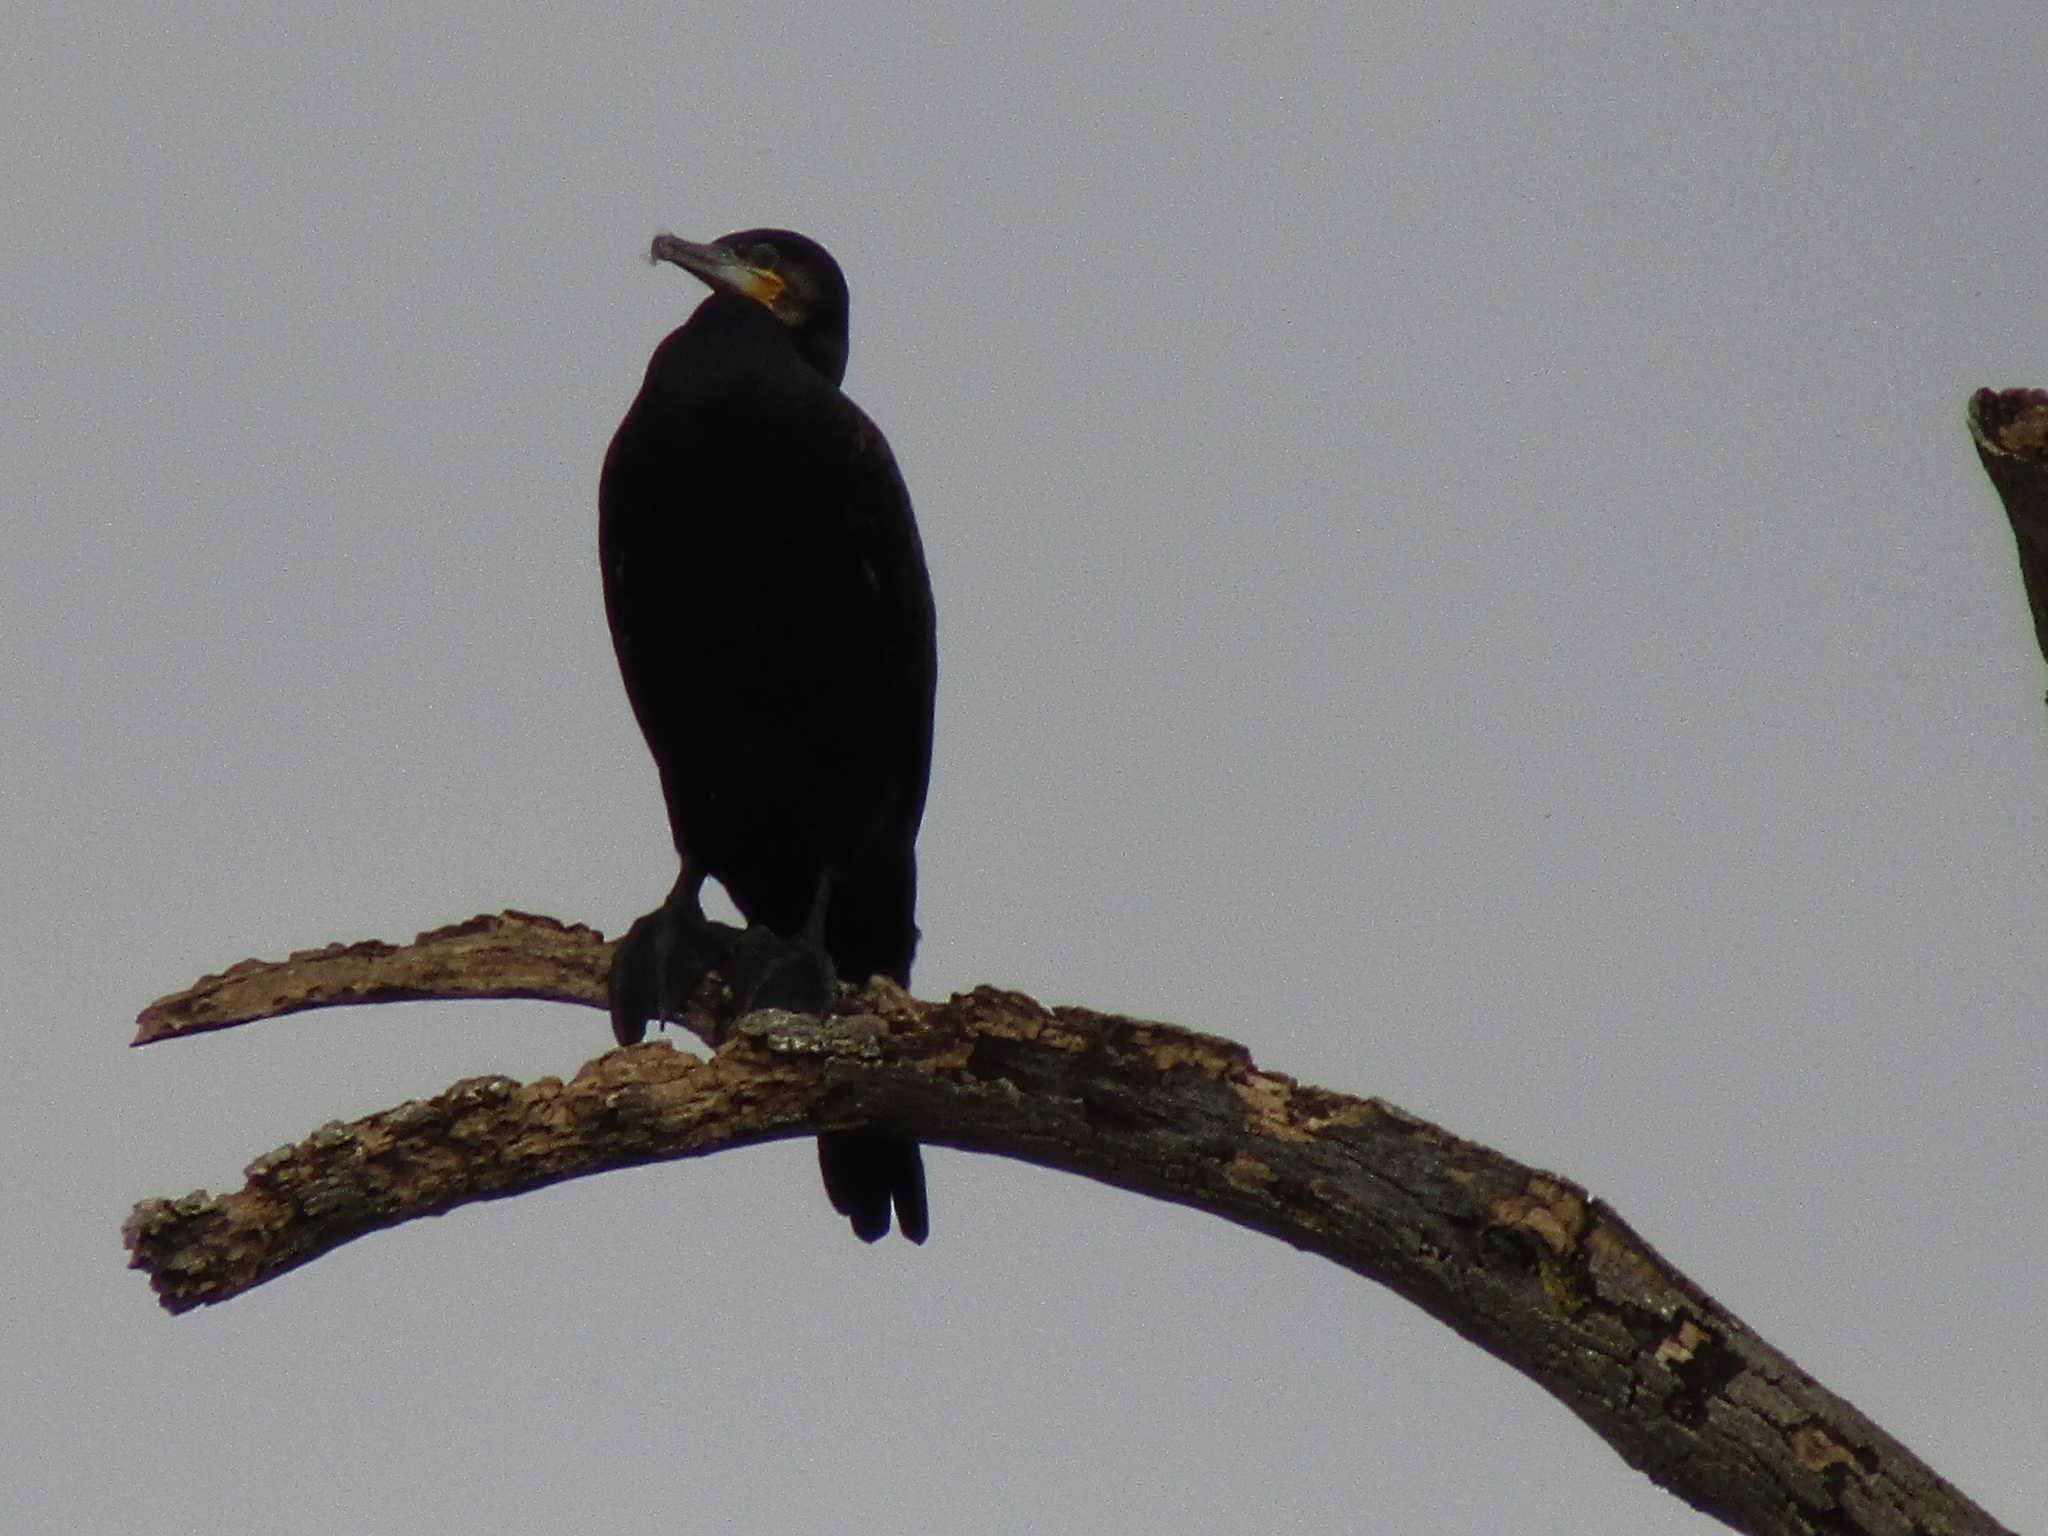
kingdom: Animalia
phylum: Chordata
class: Aves
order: Suliformes
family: Phalacrocoracidae
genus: Phalacrocorax
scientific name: Phalacrocorax carbo
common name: Great cormorant
